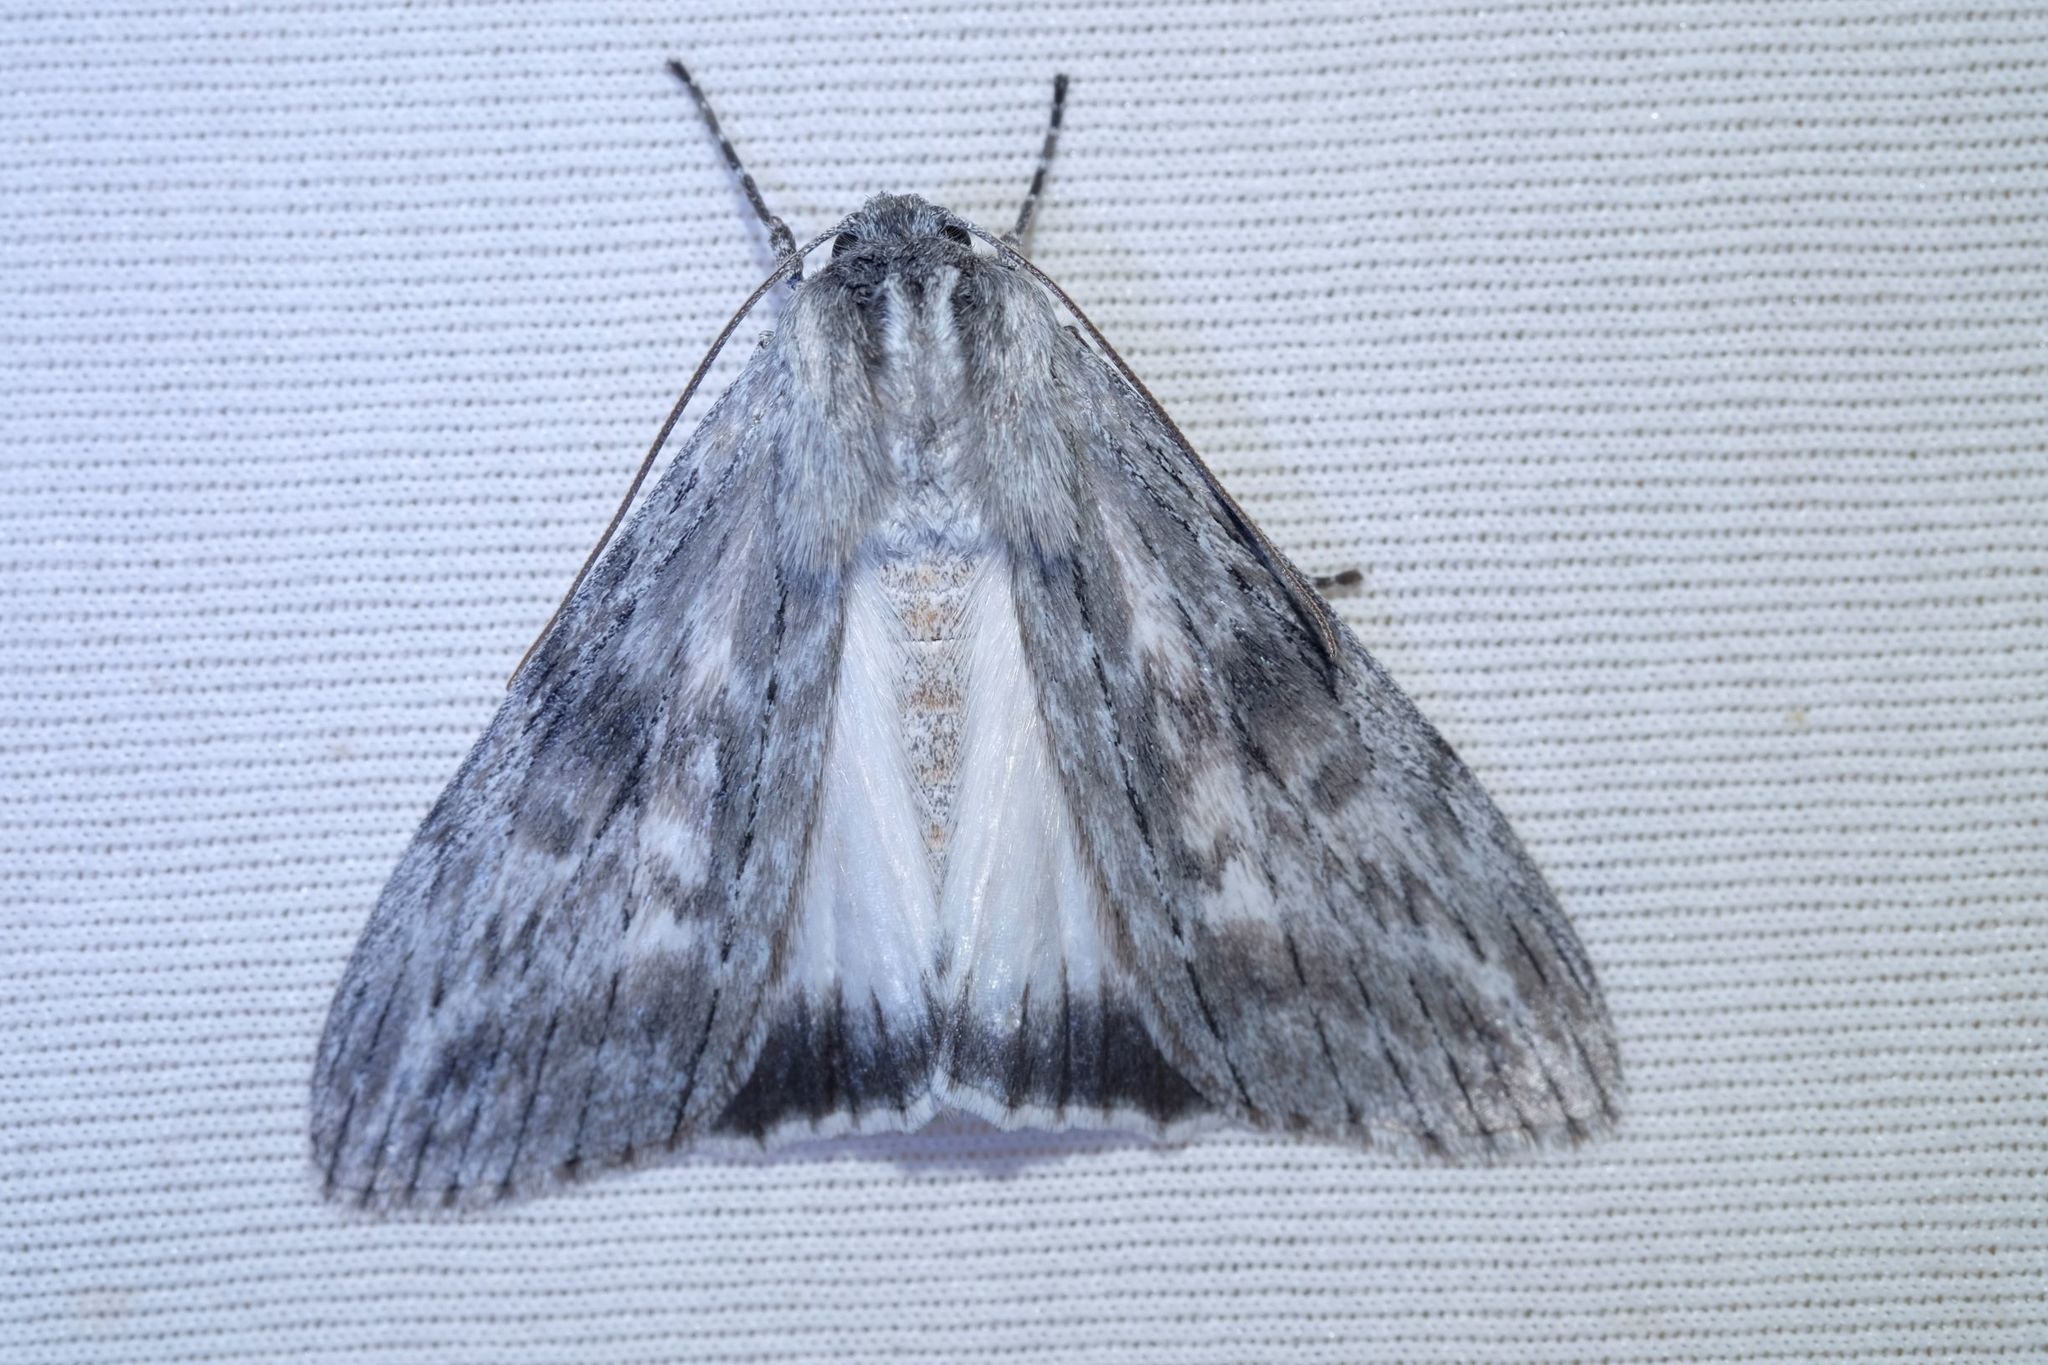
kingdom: Animalia
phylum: Arthropoda
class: Insecta
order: Lepidoptera
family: Geometridae
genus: Capusa
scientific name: Capusa senilis
